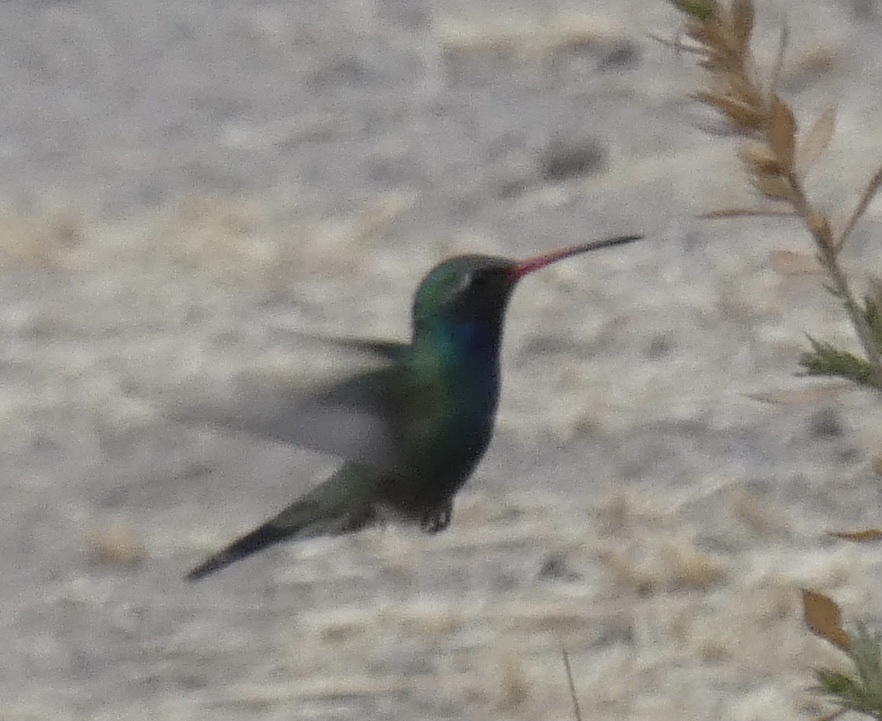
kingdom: Animalia
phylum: Chordata
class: Aves
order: Apodiformes
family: Trochilidae
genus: Cynanthus
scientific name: Cynanthus latirostris
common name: Broad-billed hummingbird
